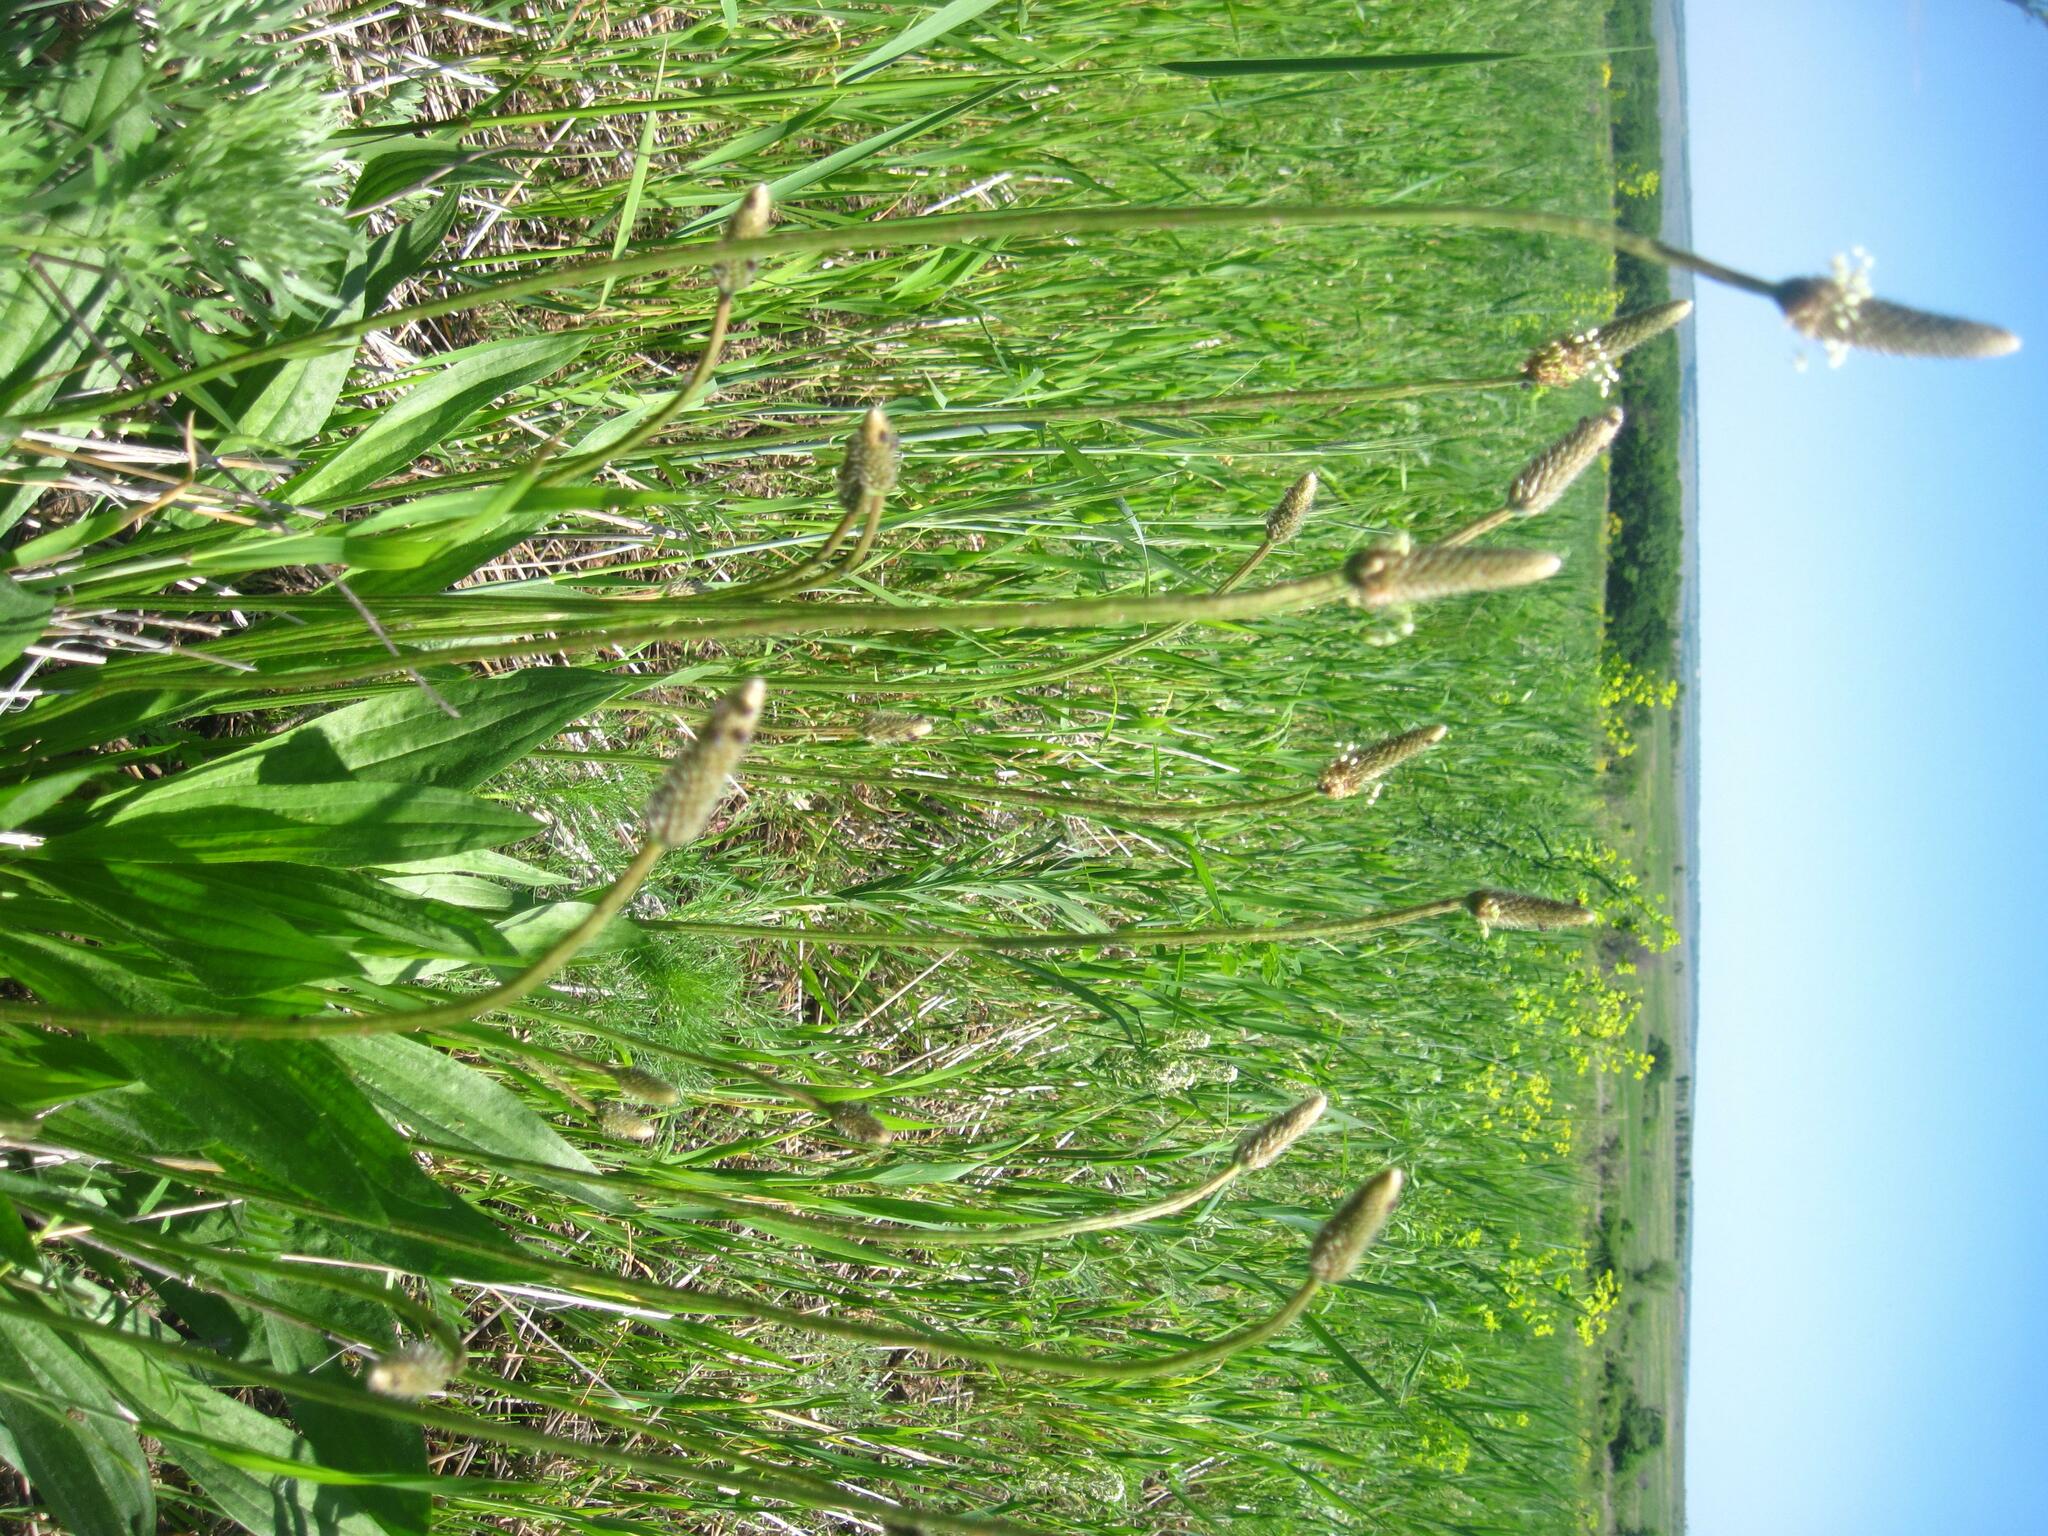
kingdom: Plantae
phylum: Tracheophyta
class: Magnoliopsida
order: Lamiales
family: Plantaginaceae
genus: Plantago
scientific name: Plantago lanceolata
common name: Ribwort plantain
